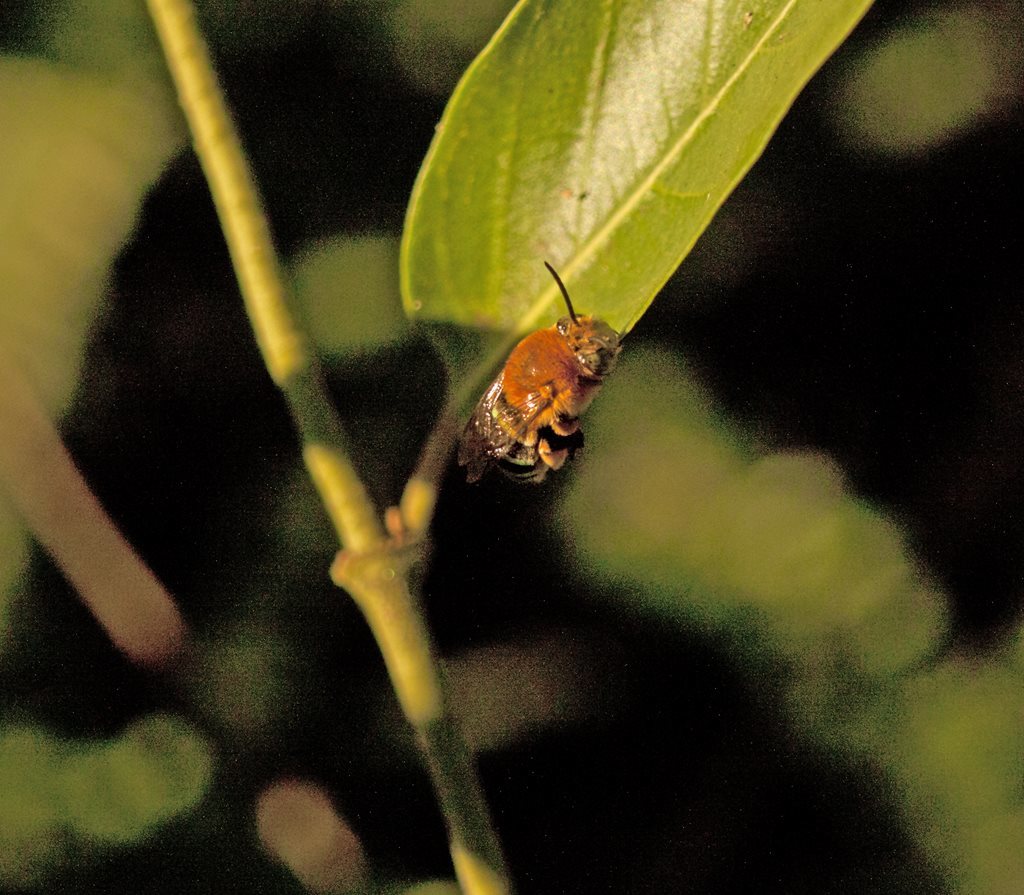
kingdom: Animalia
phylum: Arthropoda
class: Insecta
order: Hymenoptera
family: Apidae
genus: Amegilla
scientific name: Amegilla cingulata
